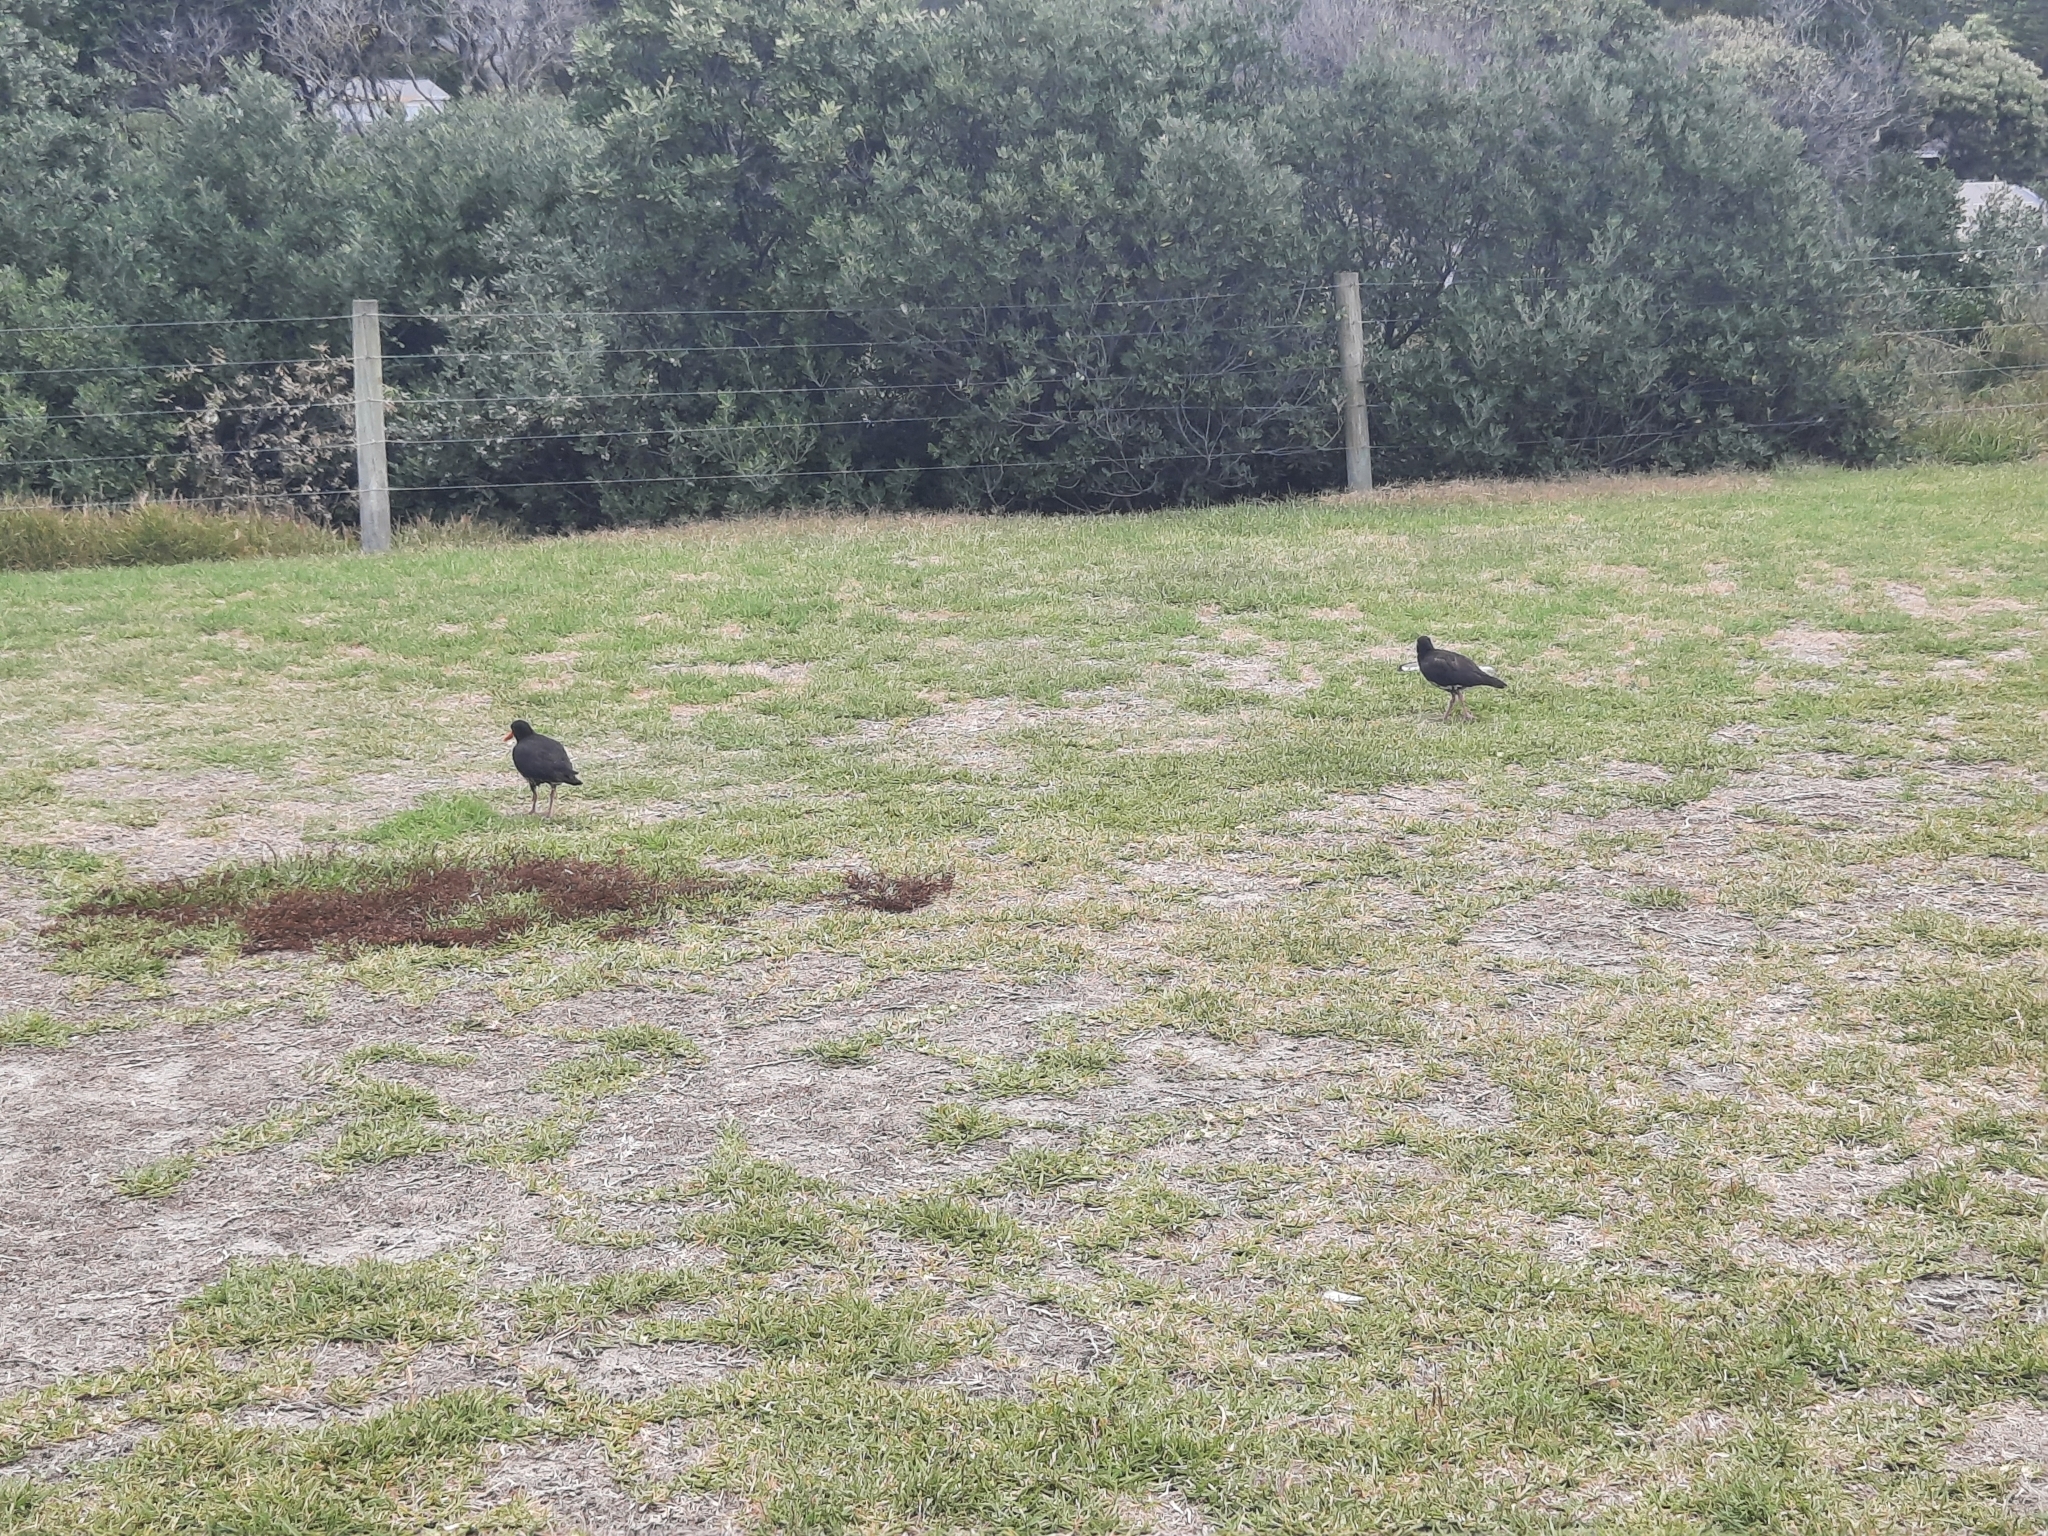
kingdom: Animalia
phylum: Chordata
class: Aves
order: Charadriiformes
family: Haematopodidae
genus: Haematopus
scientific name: Haematopus unicolor
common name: Variable oystercatcher
